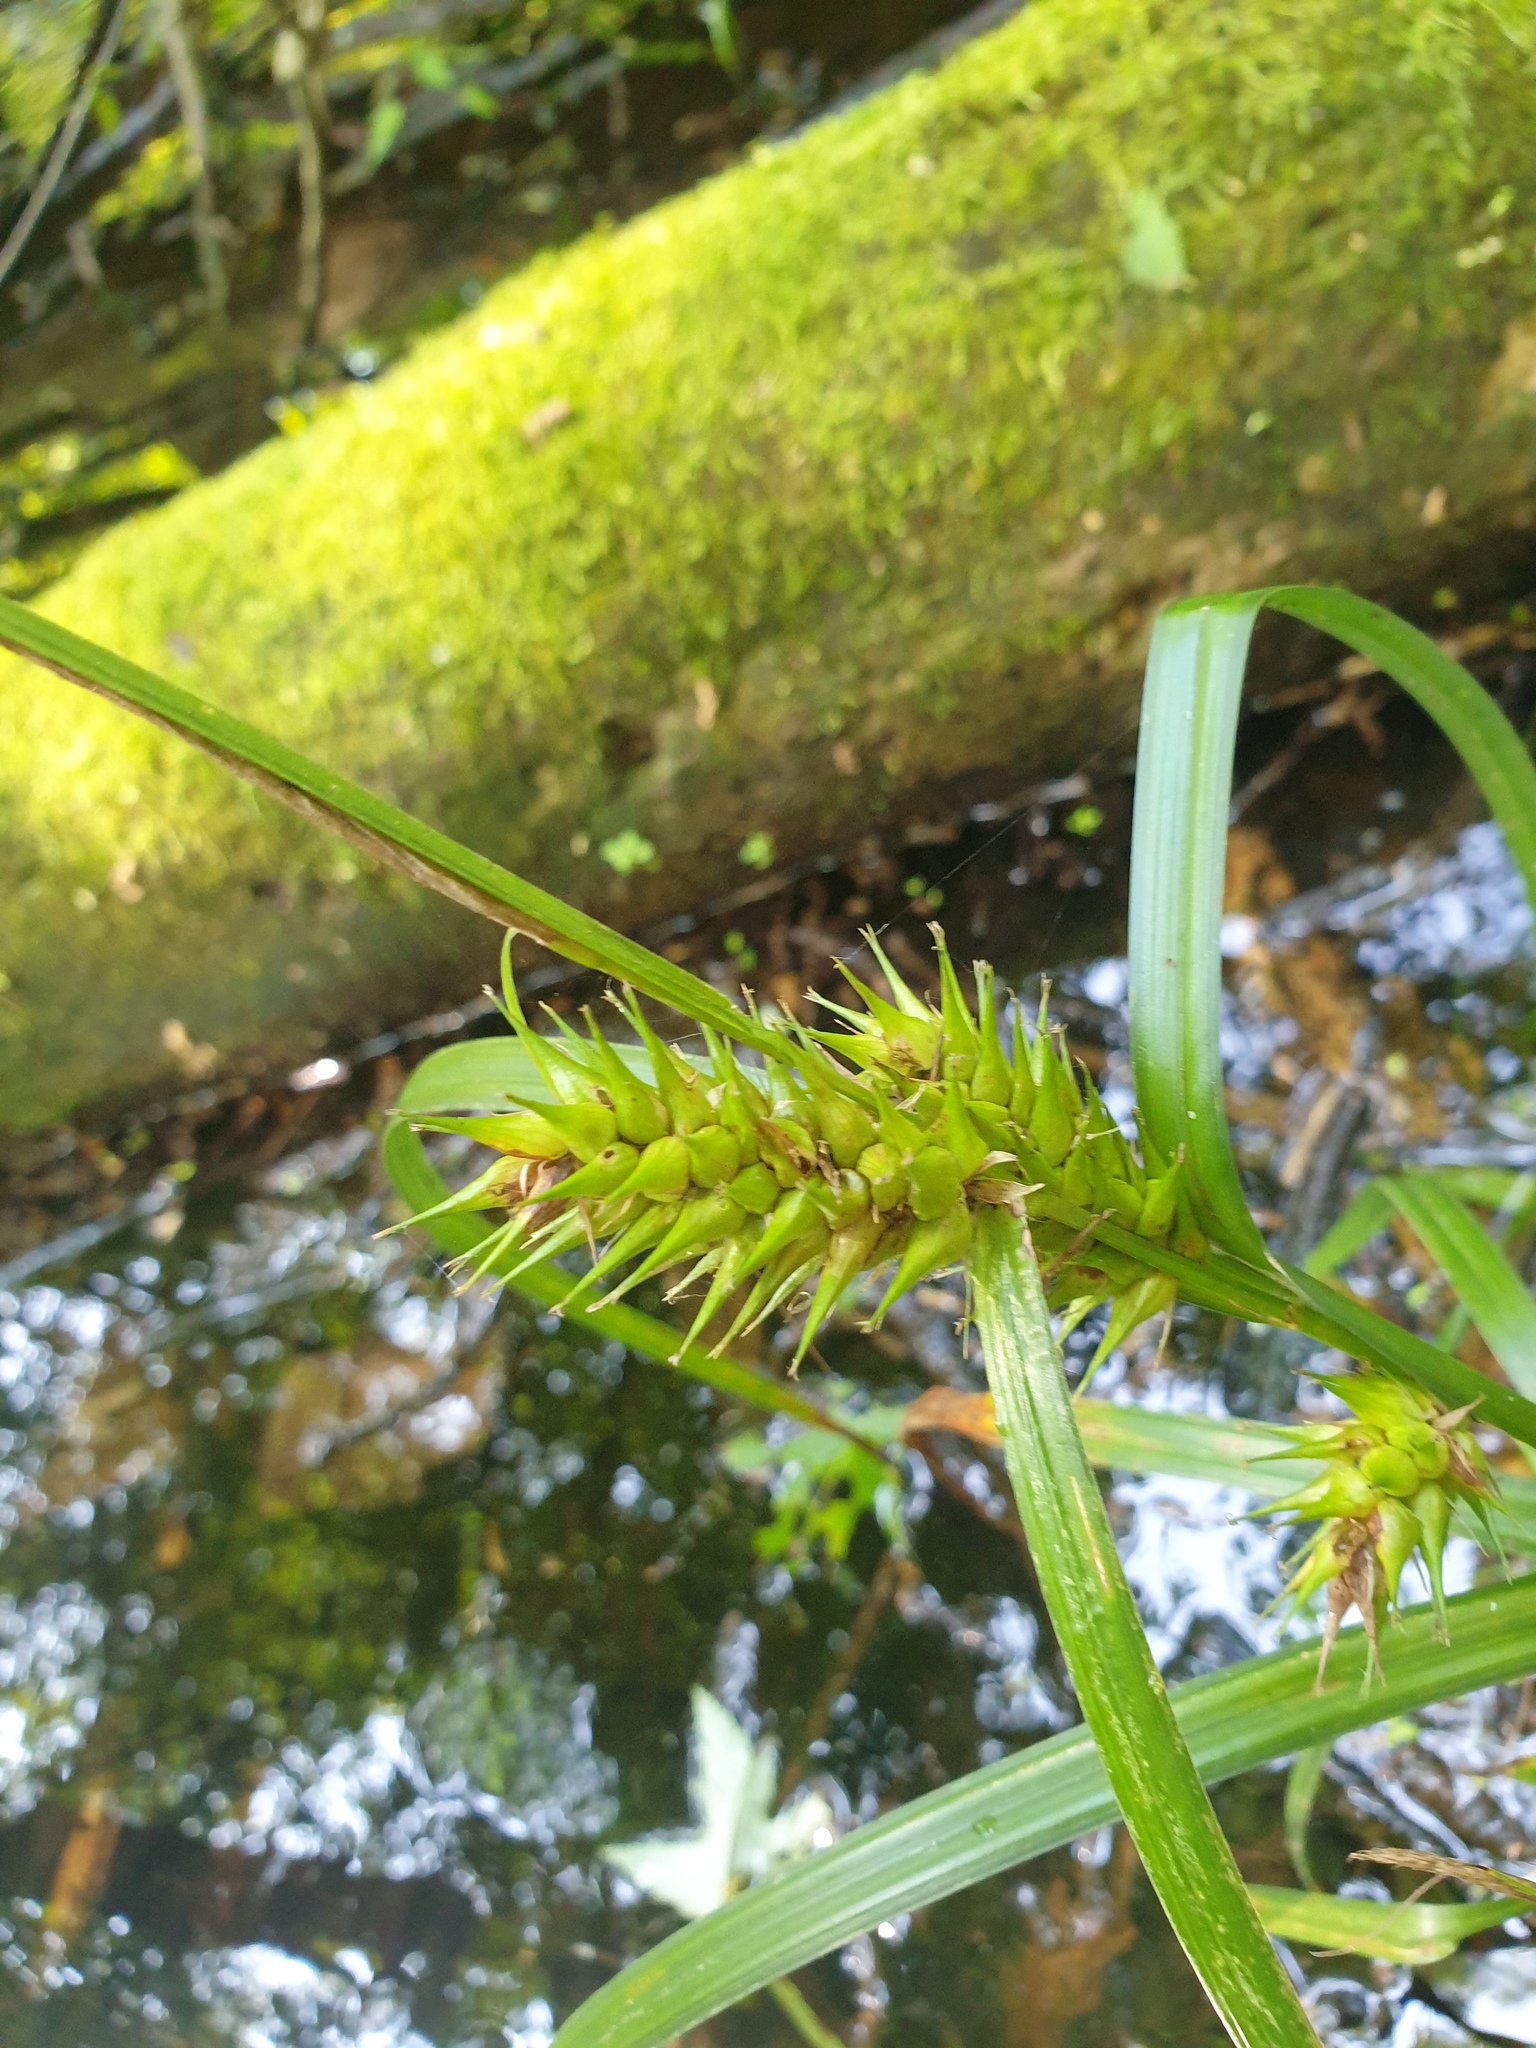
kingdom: Plantae
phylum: Tracheophyta
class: Liliopsida
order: Poales
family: Cyperaceae
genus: Carex
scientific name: Carex lupulina
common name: Hop sedge
